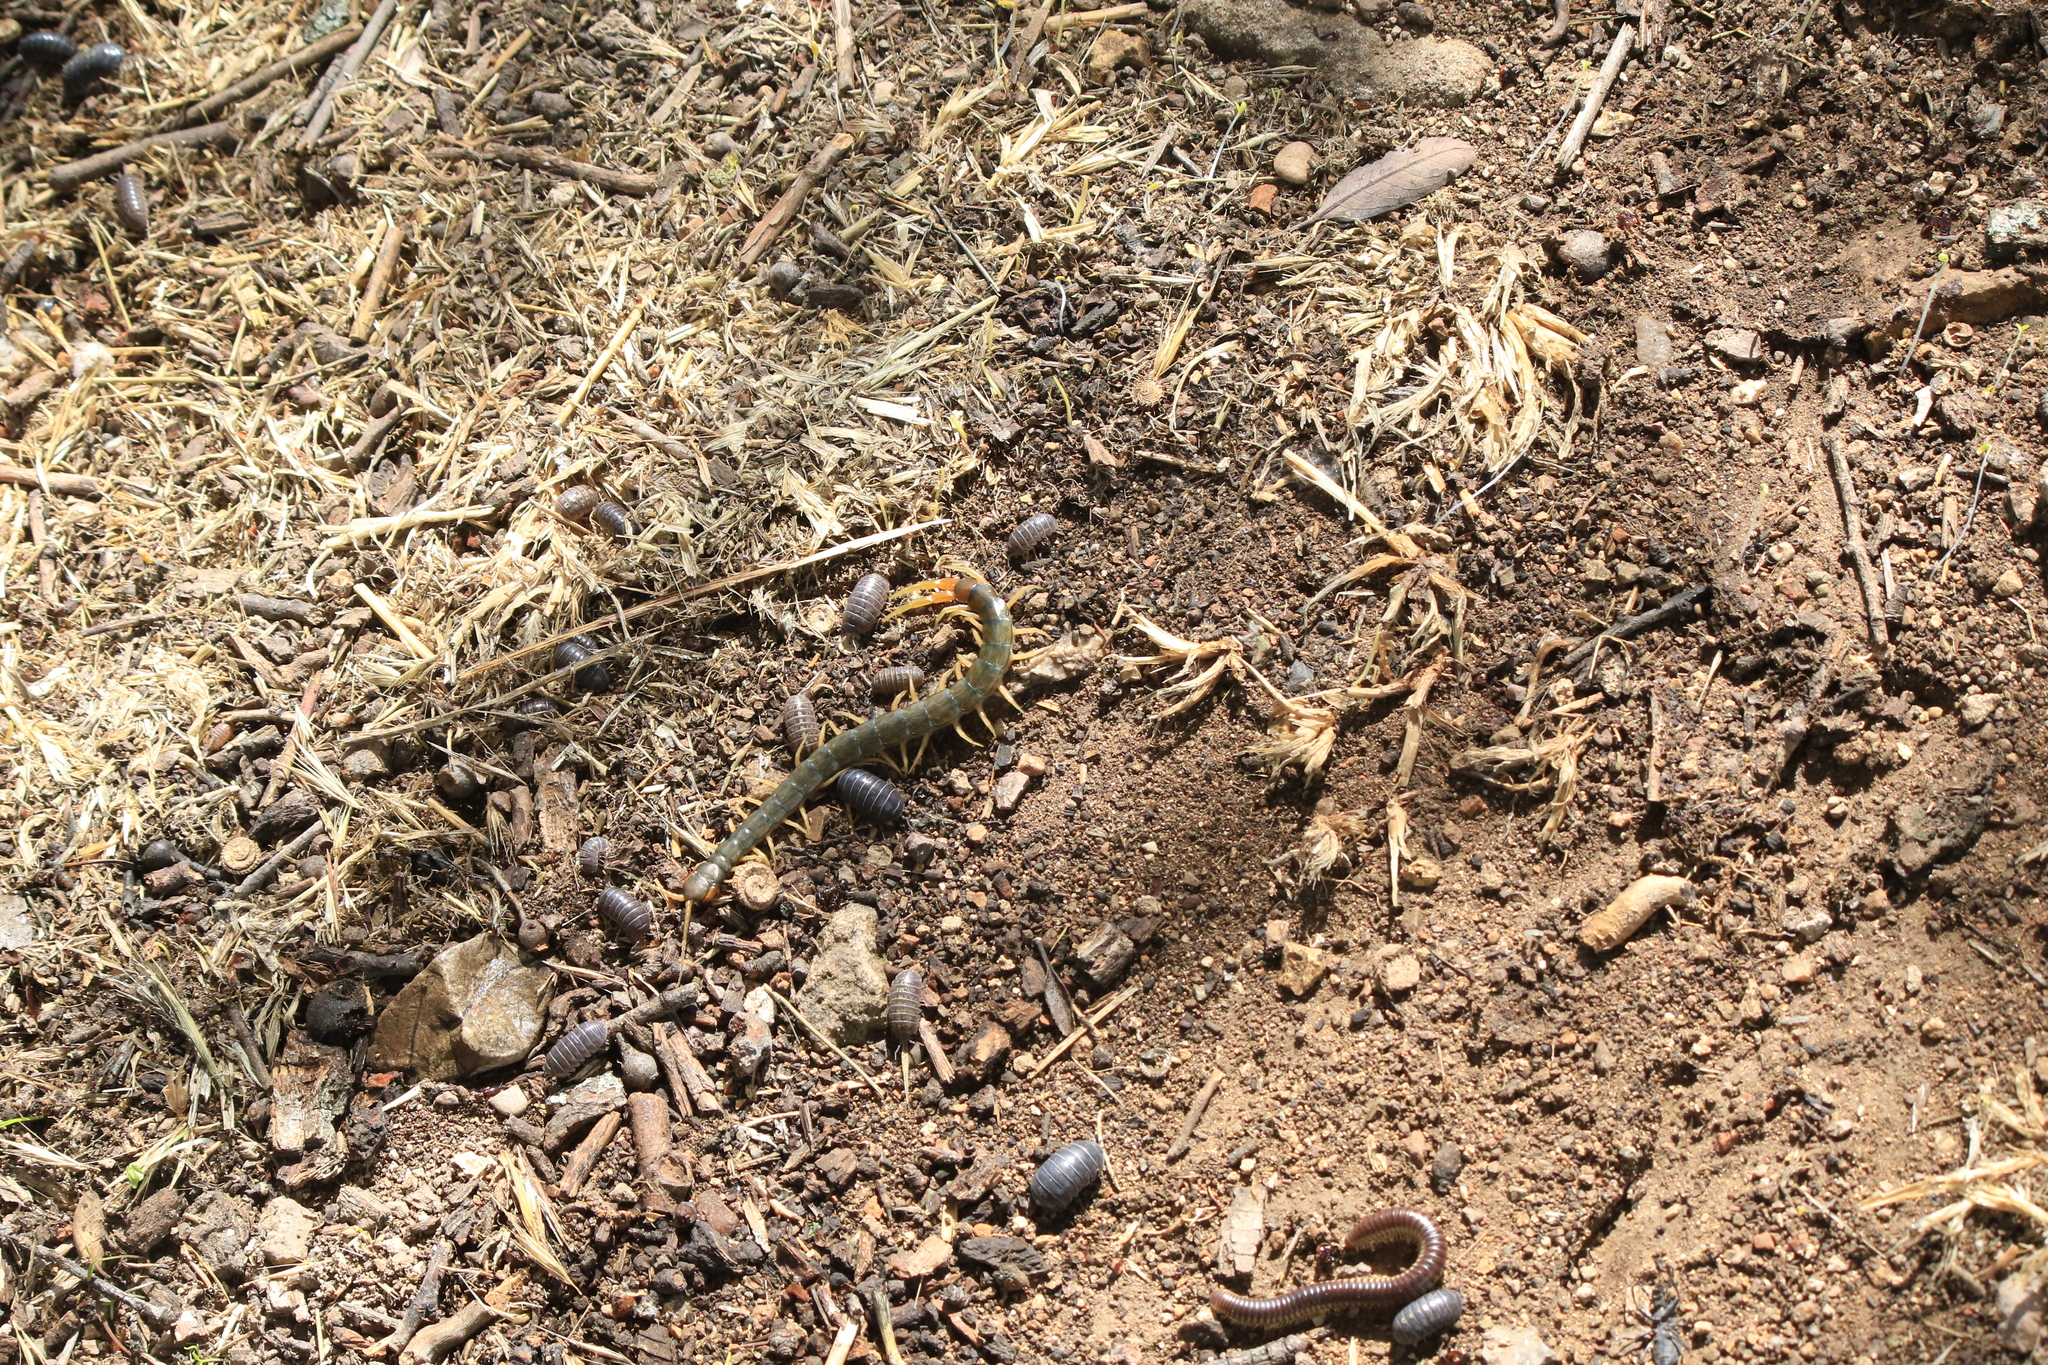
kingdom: Animalia
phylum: Arthropoda
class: Chilopoda
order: Scolopendromorpha
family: Scolopendridae
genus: Scolopendra
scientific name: Scolopendra cingulata
